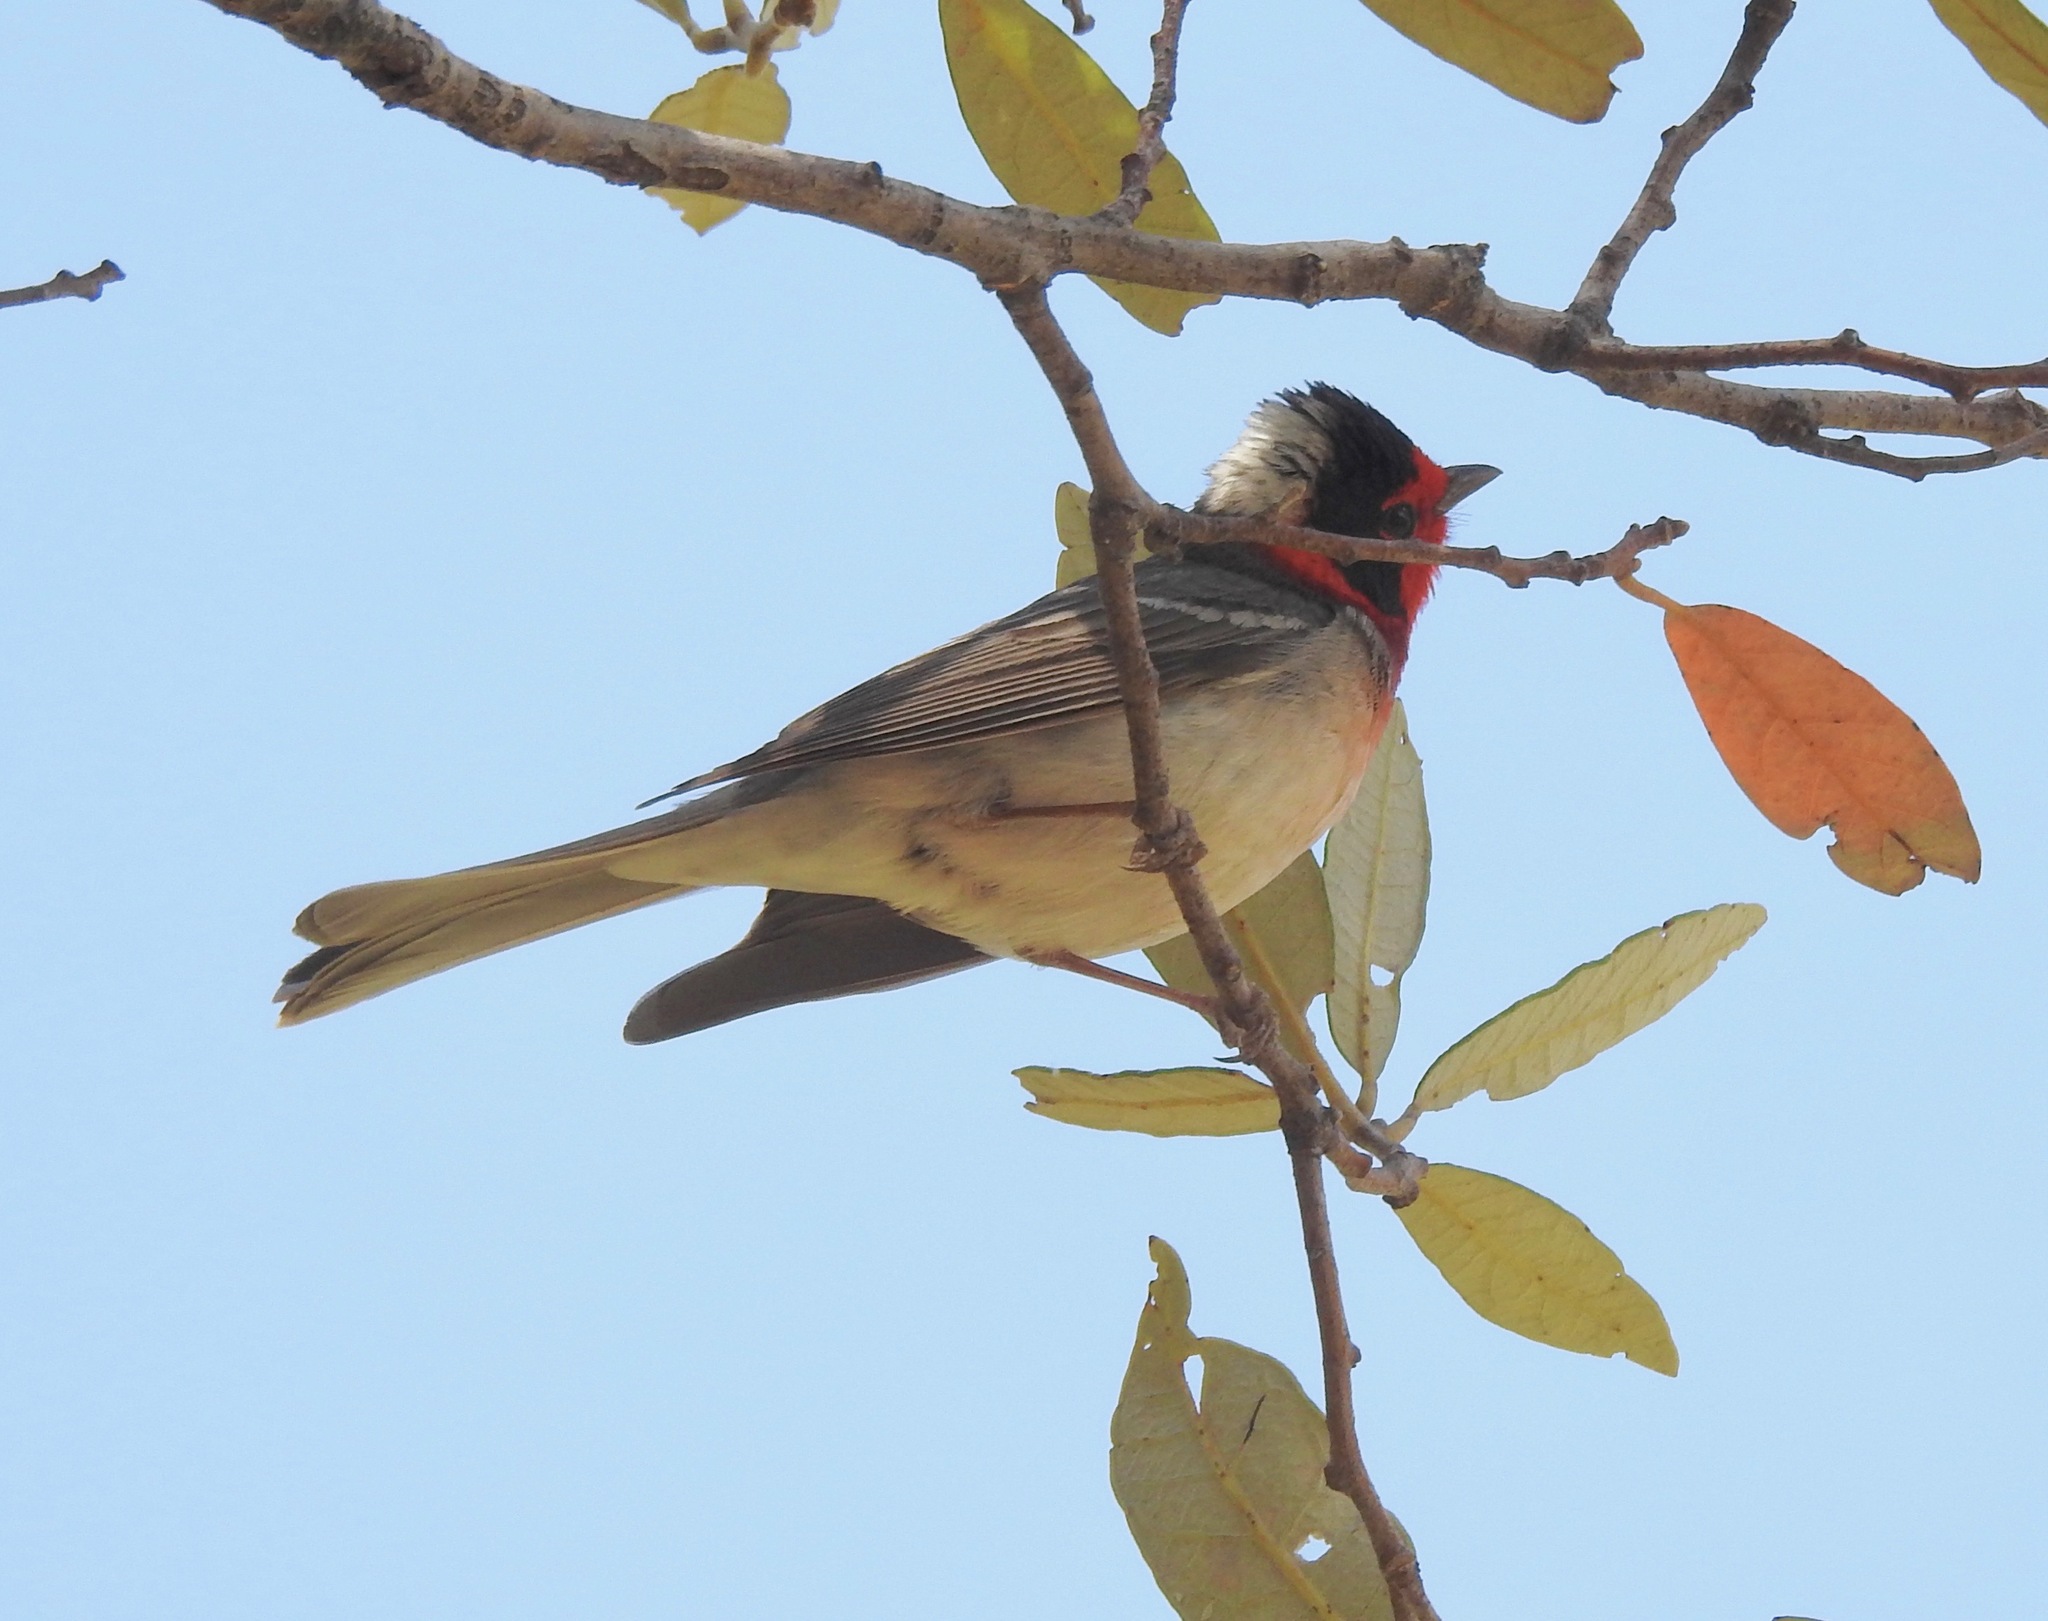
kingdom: Animalia
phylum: Chordata
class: Aves
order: Passeriformes
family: Parulidae
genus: Cardellina
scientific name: Cardellina rubrifrons
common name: Red-faced warbler
